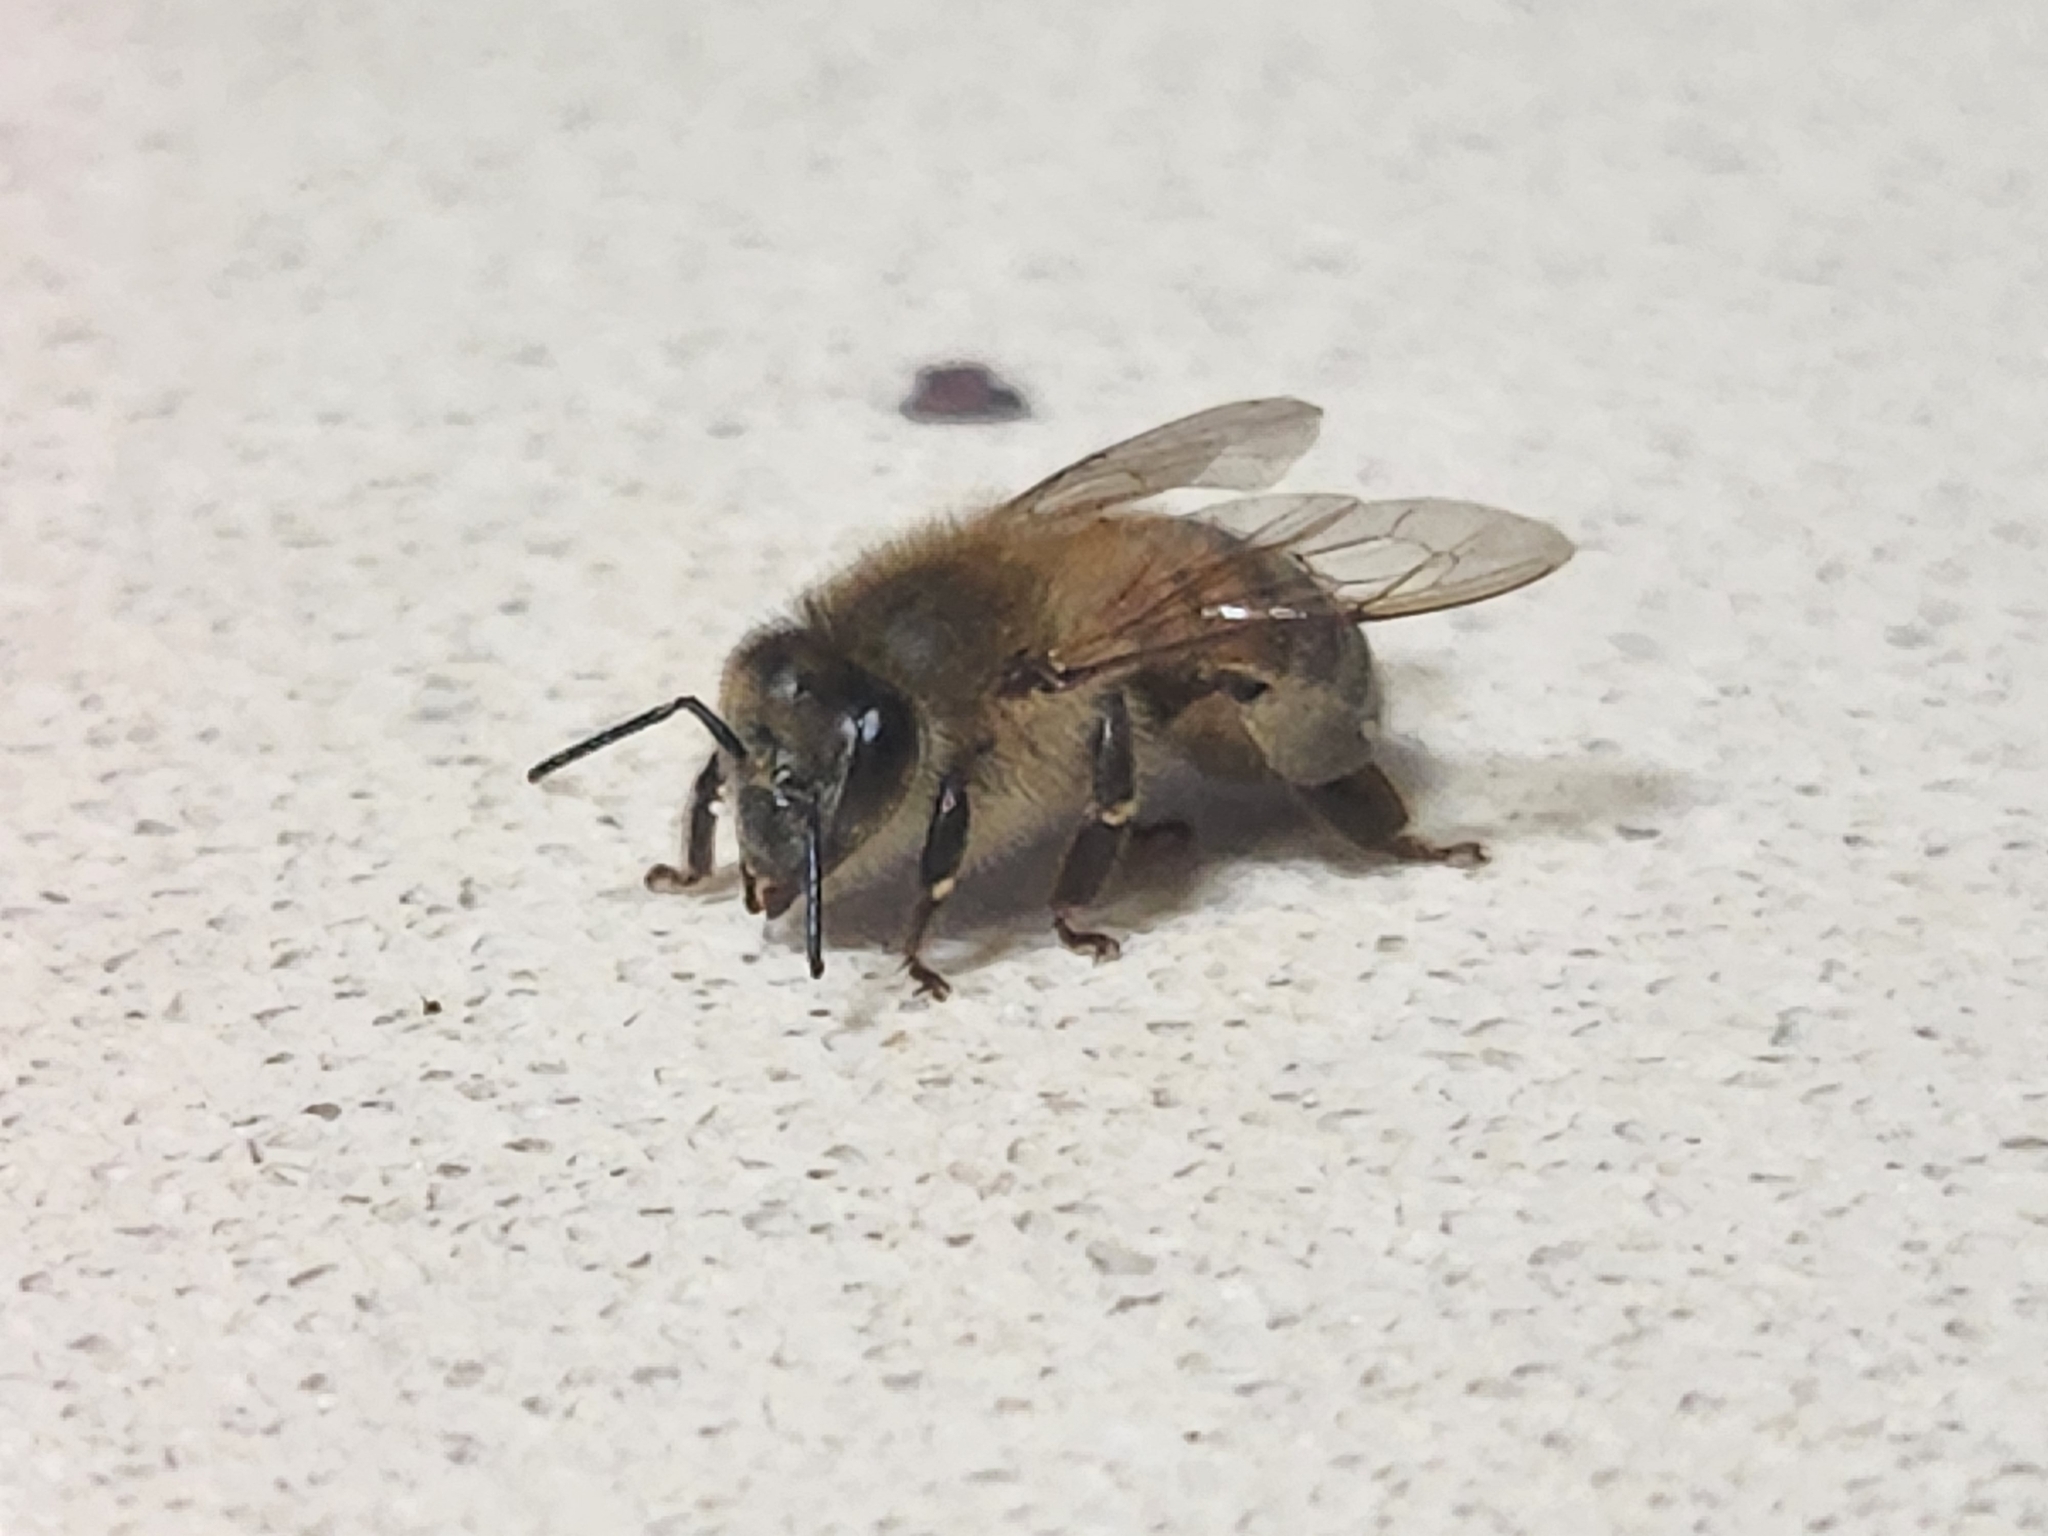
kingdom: Animalia
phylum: Arthropoda
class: Insecta
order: Hymenoptera
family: Apidae
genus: Apis
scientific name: Apis mellifera
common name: Honey bee
